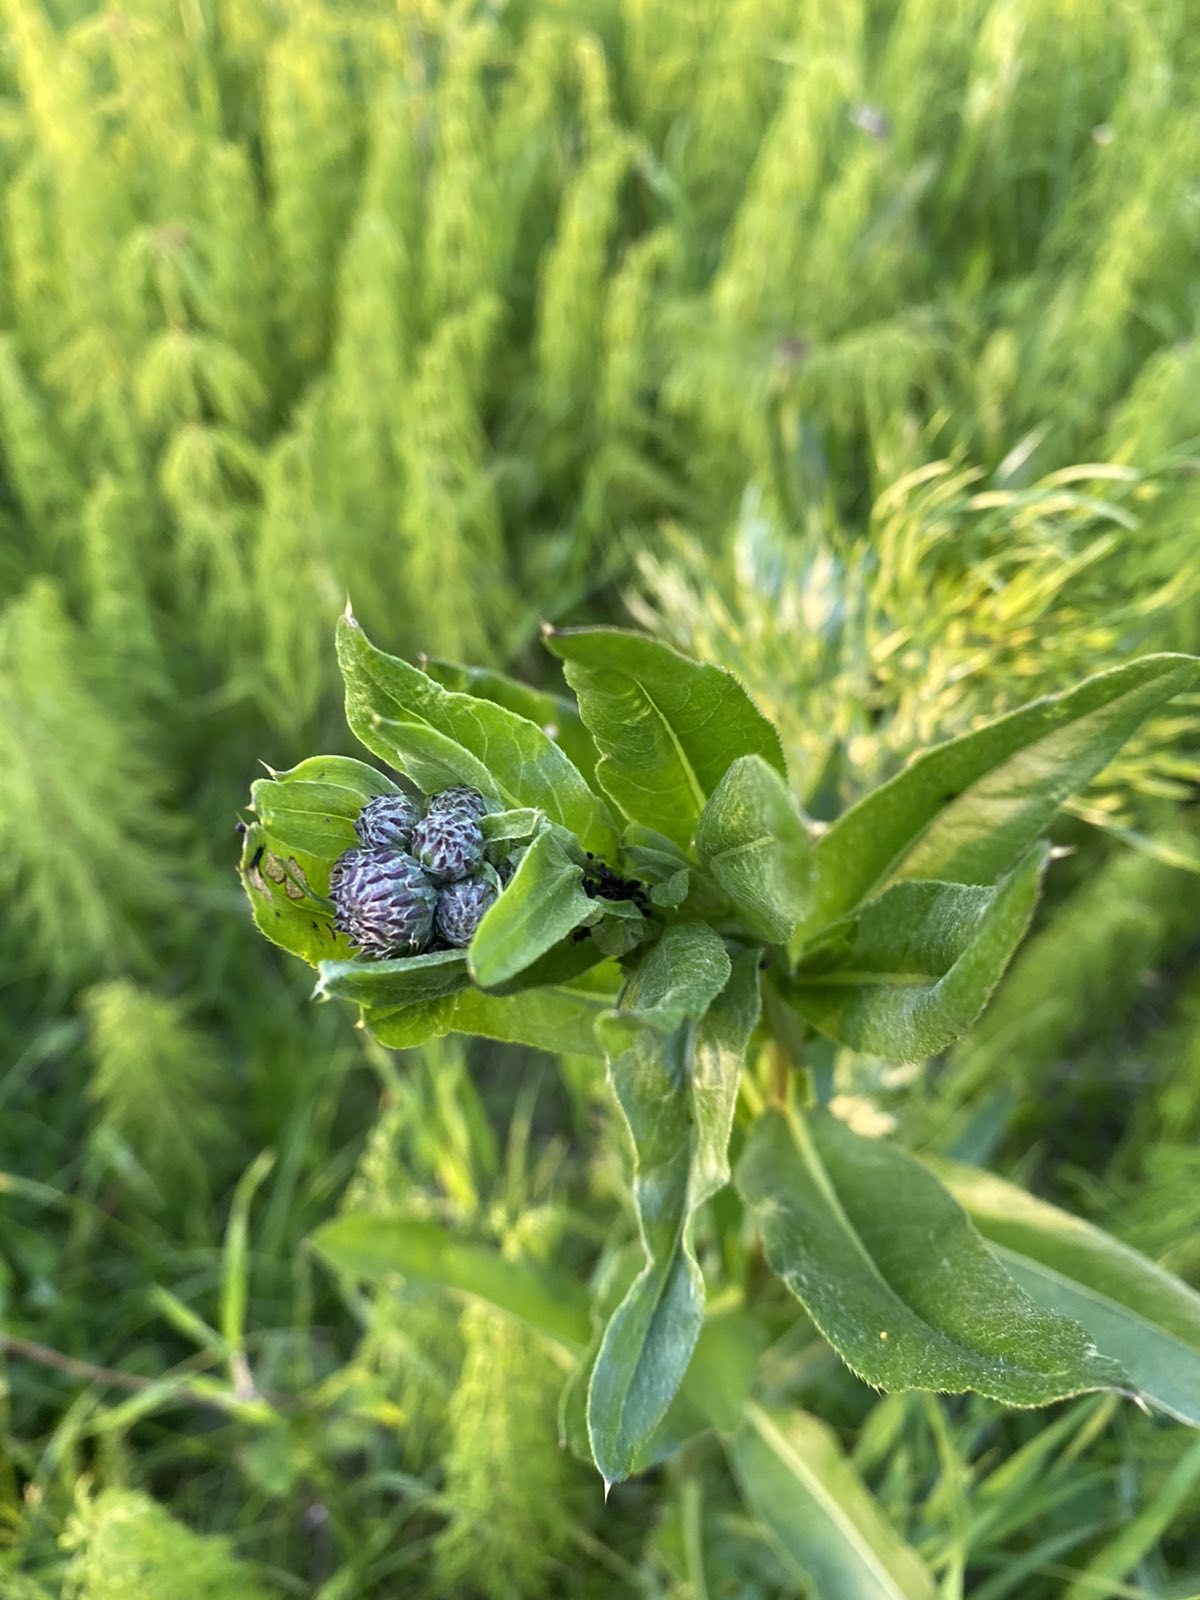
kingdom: Plantae
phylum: Tracheophyta
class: Magnoliopsida
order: Asterales
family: Asteraceae
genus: Cirsium
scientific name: Cirsium arvense
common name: Creeping thistle
